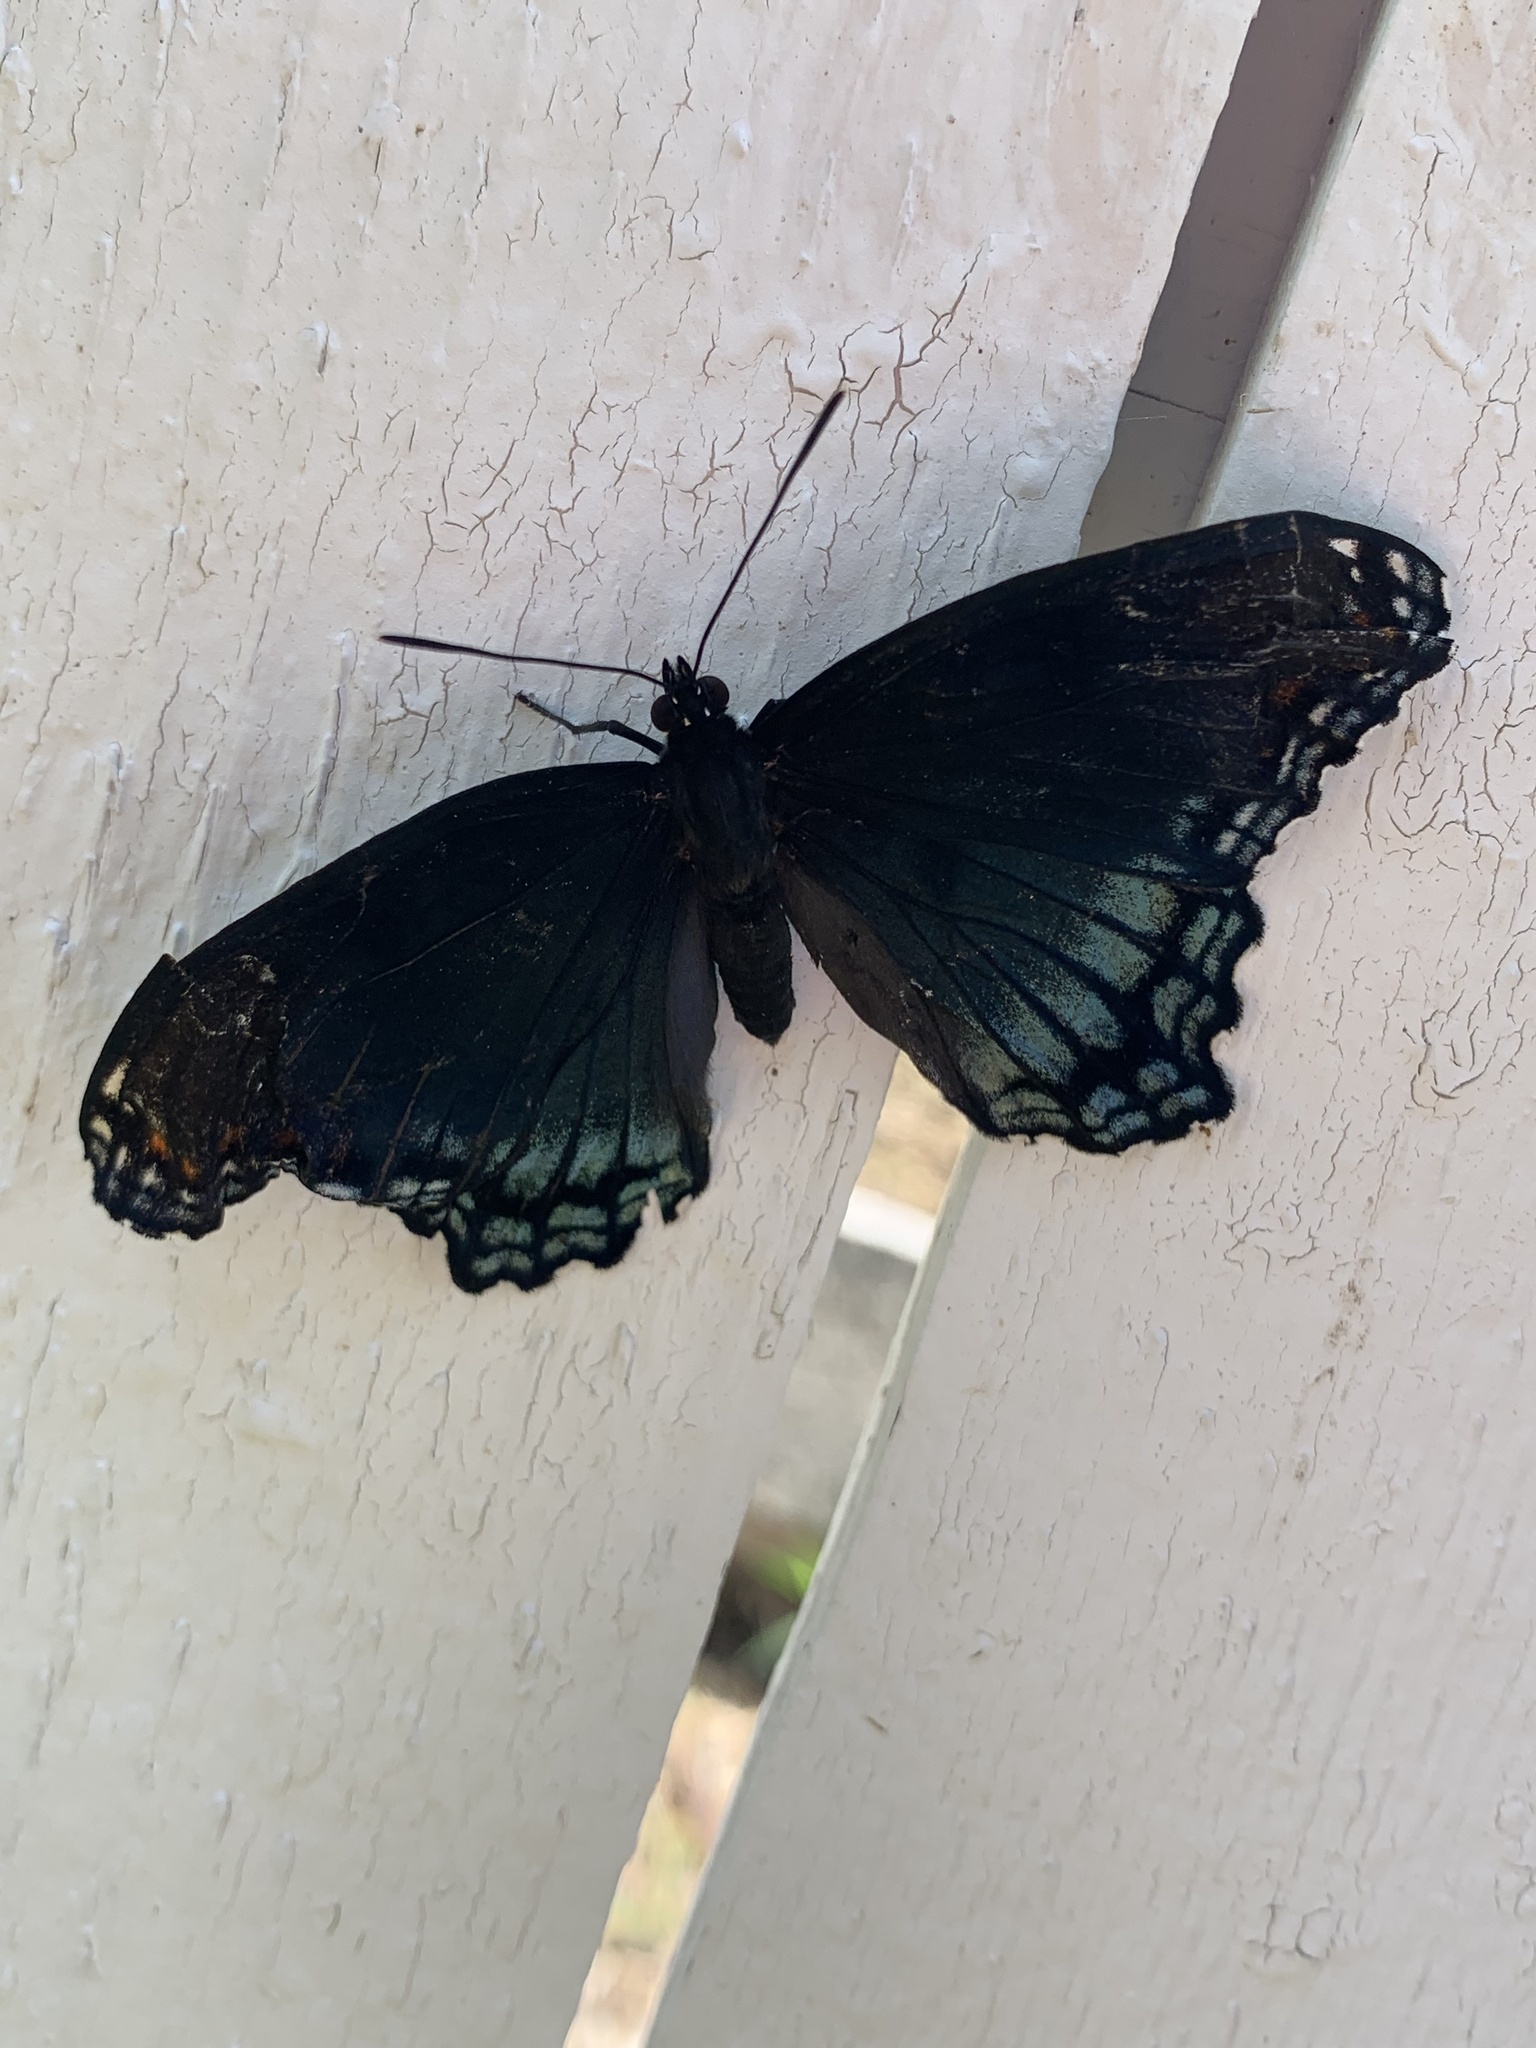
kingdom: Animalia
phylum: Arthropoda
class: Insecta
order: Lepidoptera
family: Nymphalidae
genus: Limenitis
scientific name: Limenitis astyanax
